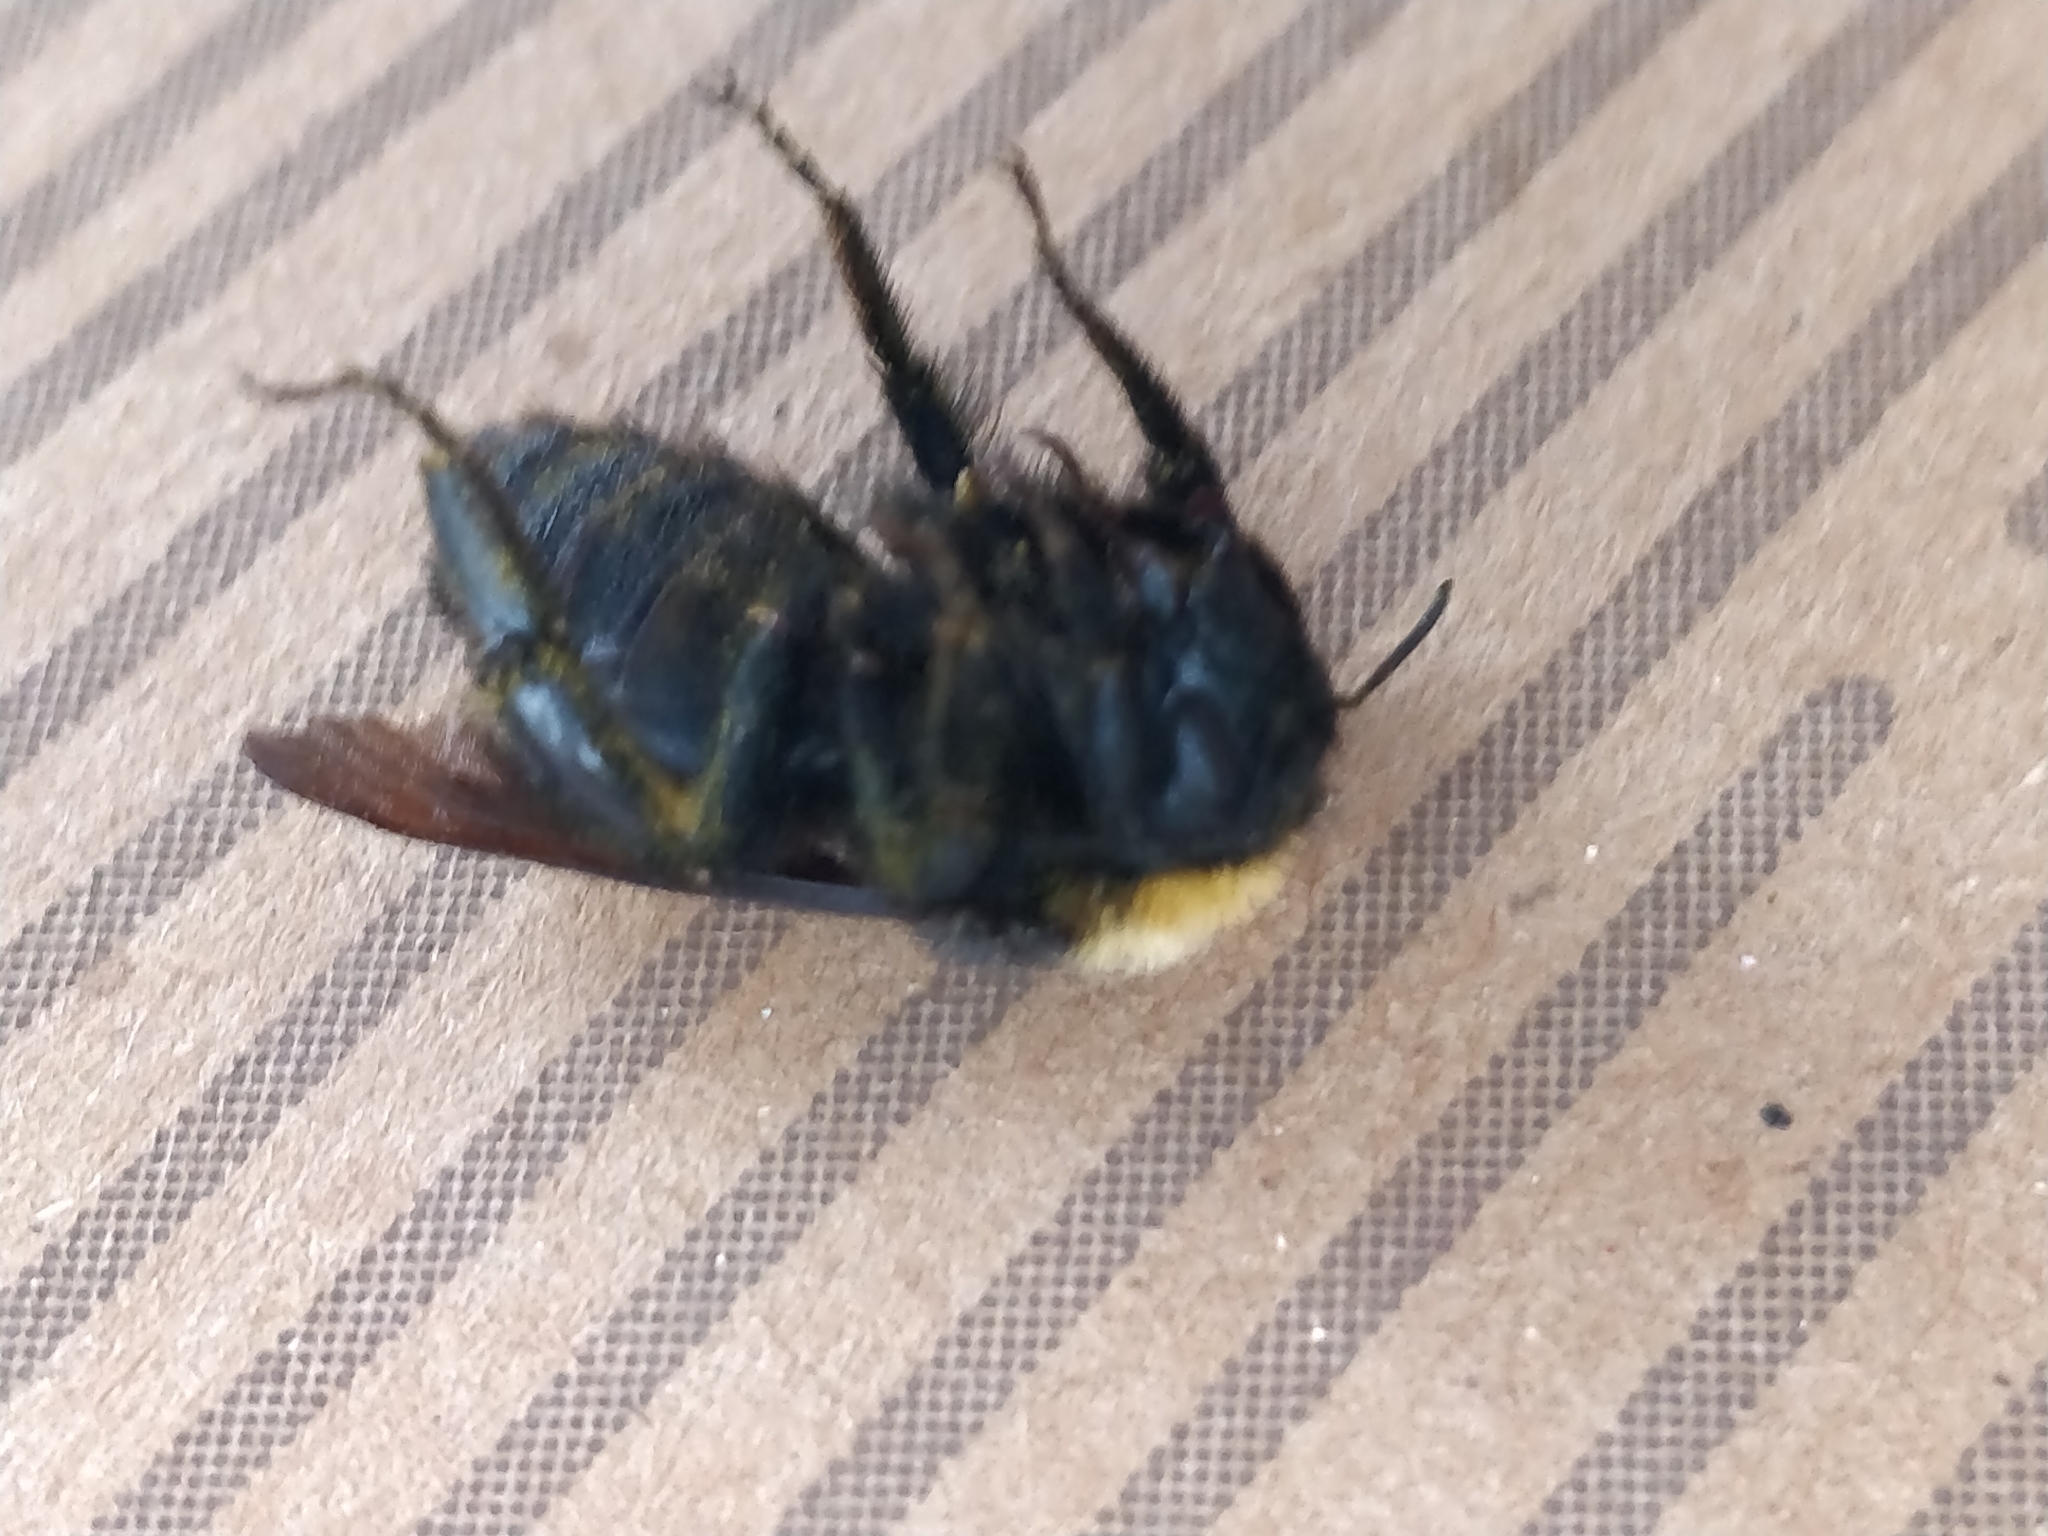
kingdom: Animalia
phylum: Arthropoda
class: Insecta
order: Hymenoptera
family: Apidae
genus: Bombus
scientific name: Bombus pensylvanicus
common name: Bumble bee
